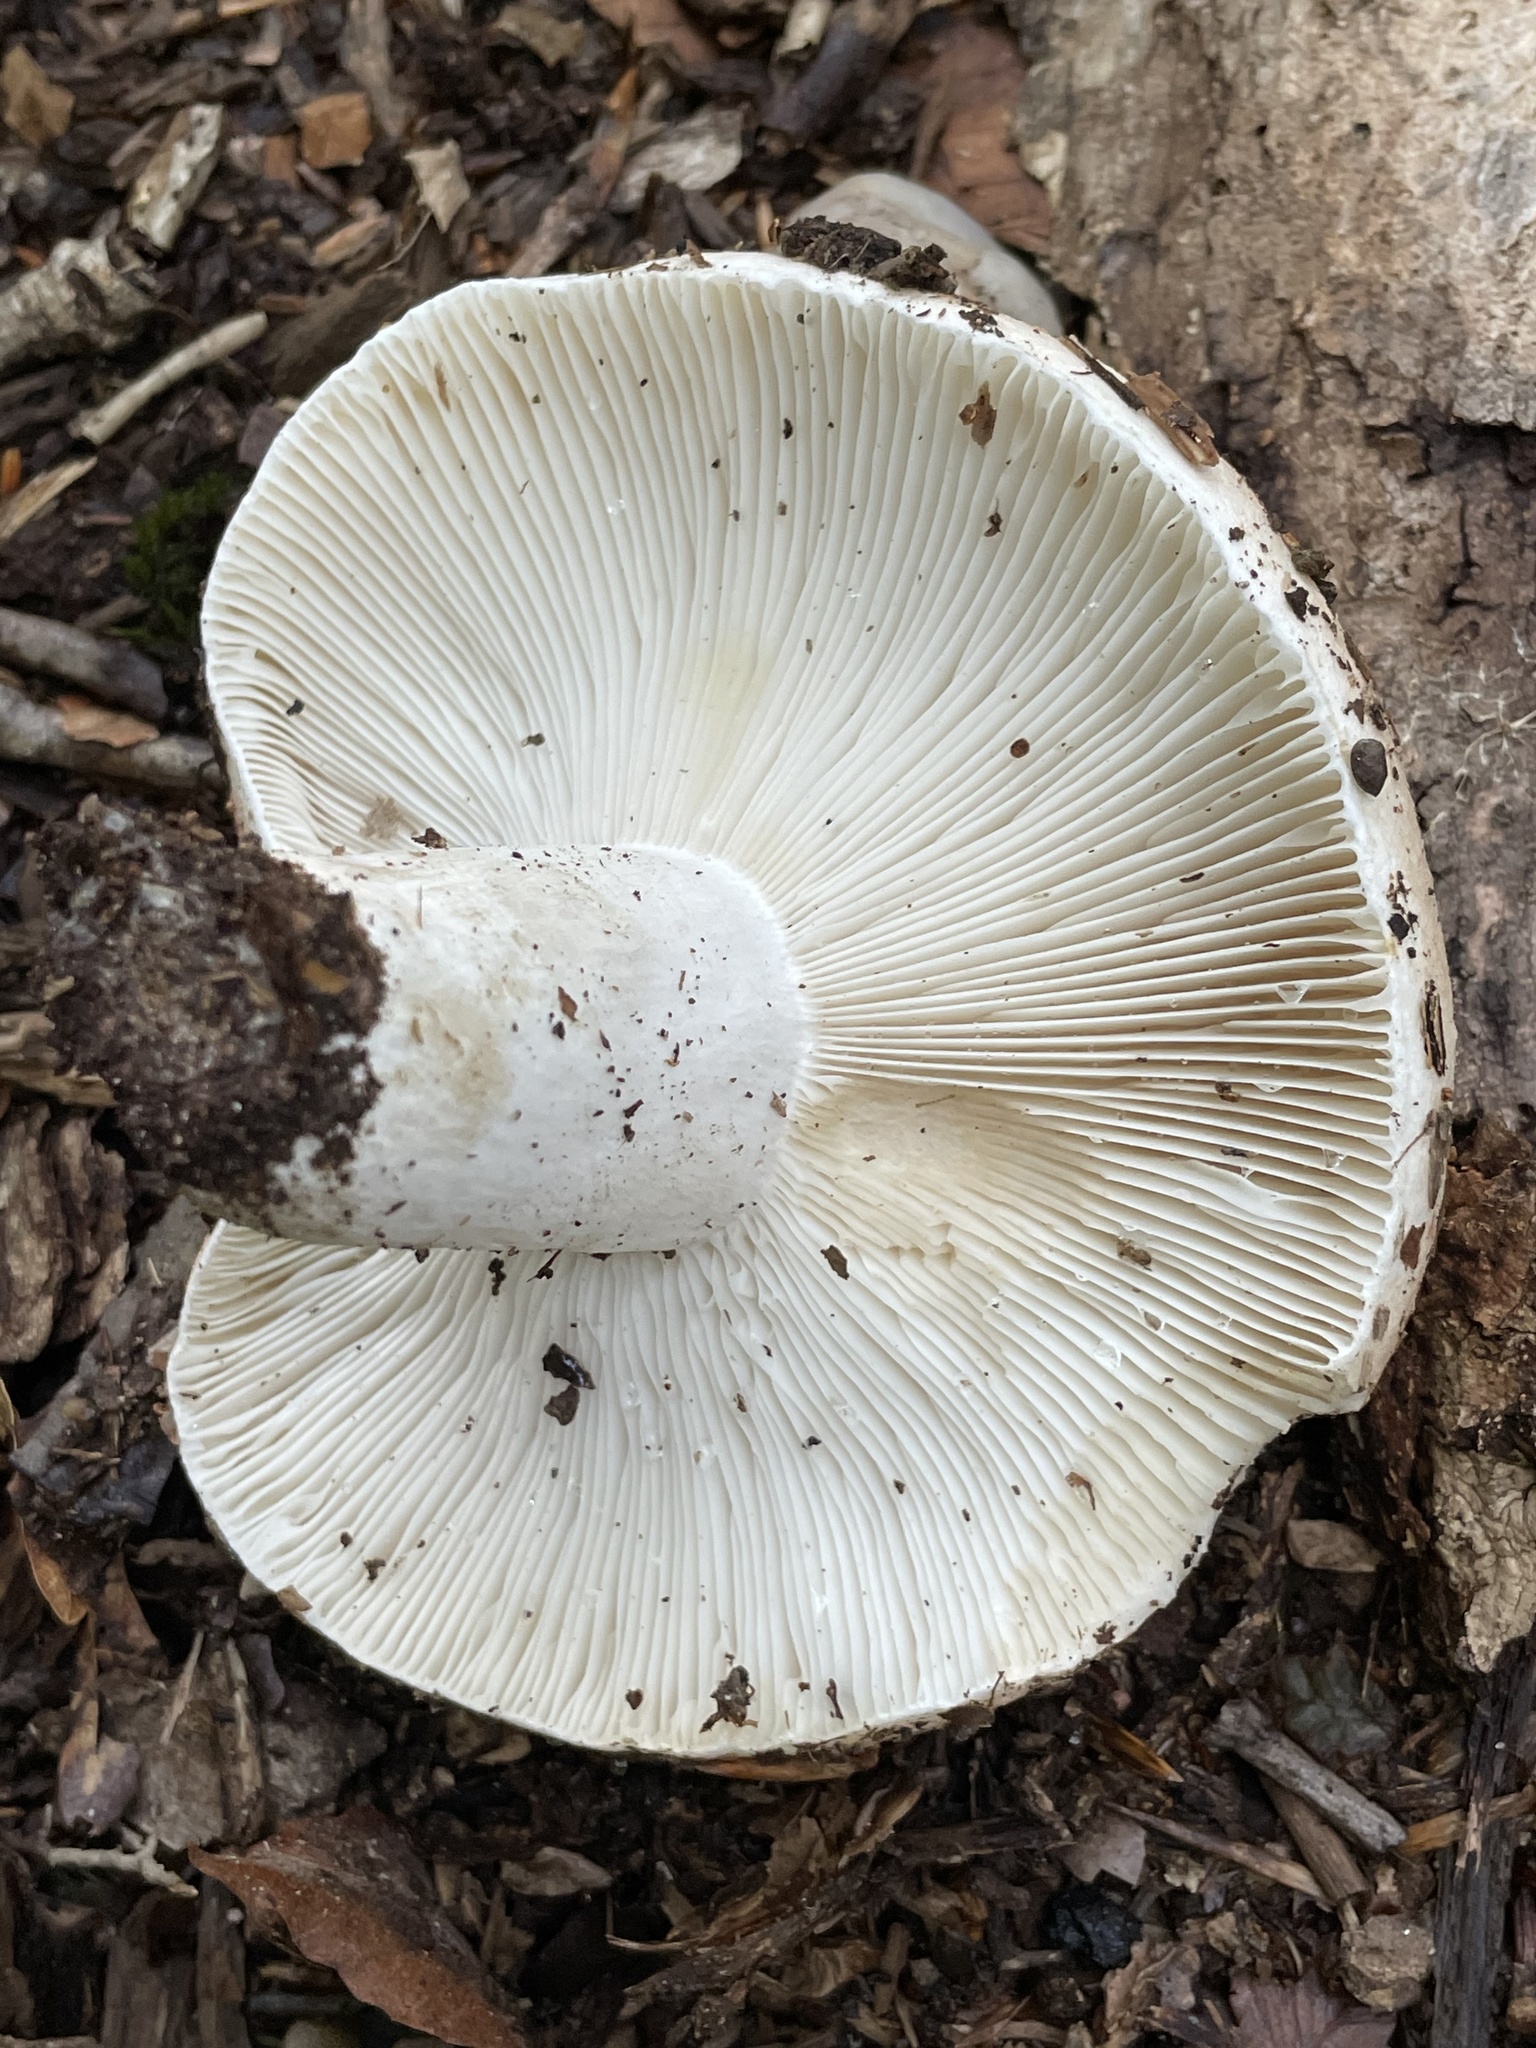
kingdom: Fungi
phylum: Basidiomycota
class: Agaricomycetes
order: Russulales
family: Russulaceae
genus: Russula
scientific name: Russula compacta
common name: Fishbiscuit russula
